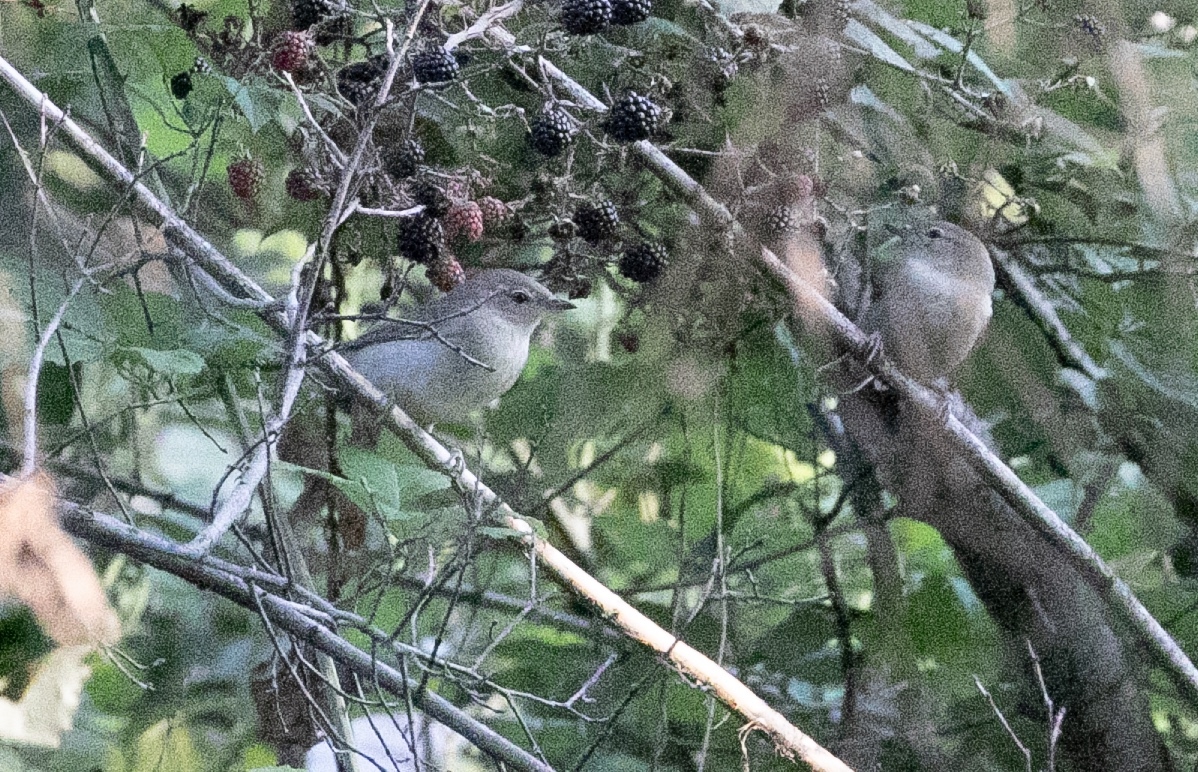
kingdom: Animalia
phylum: Chordata
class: Aves
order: Passeriformes
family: Sylviidae
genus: Sylvia
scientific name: Sylvia borin
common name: Garden warbler
